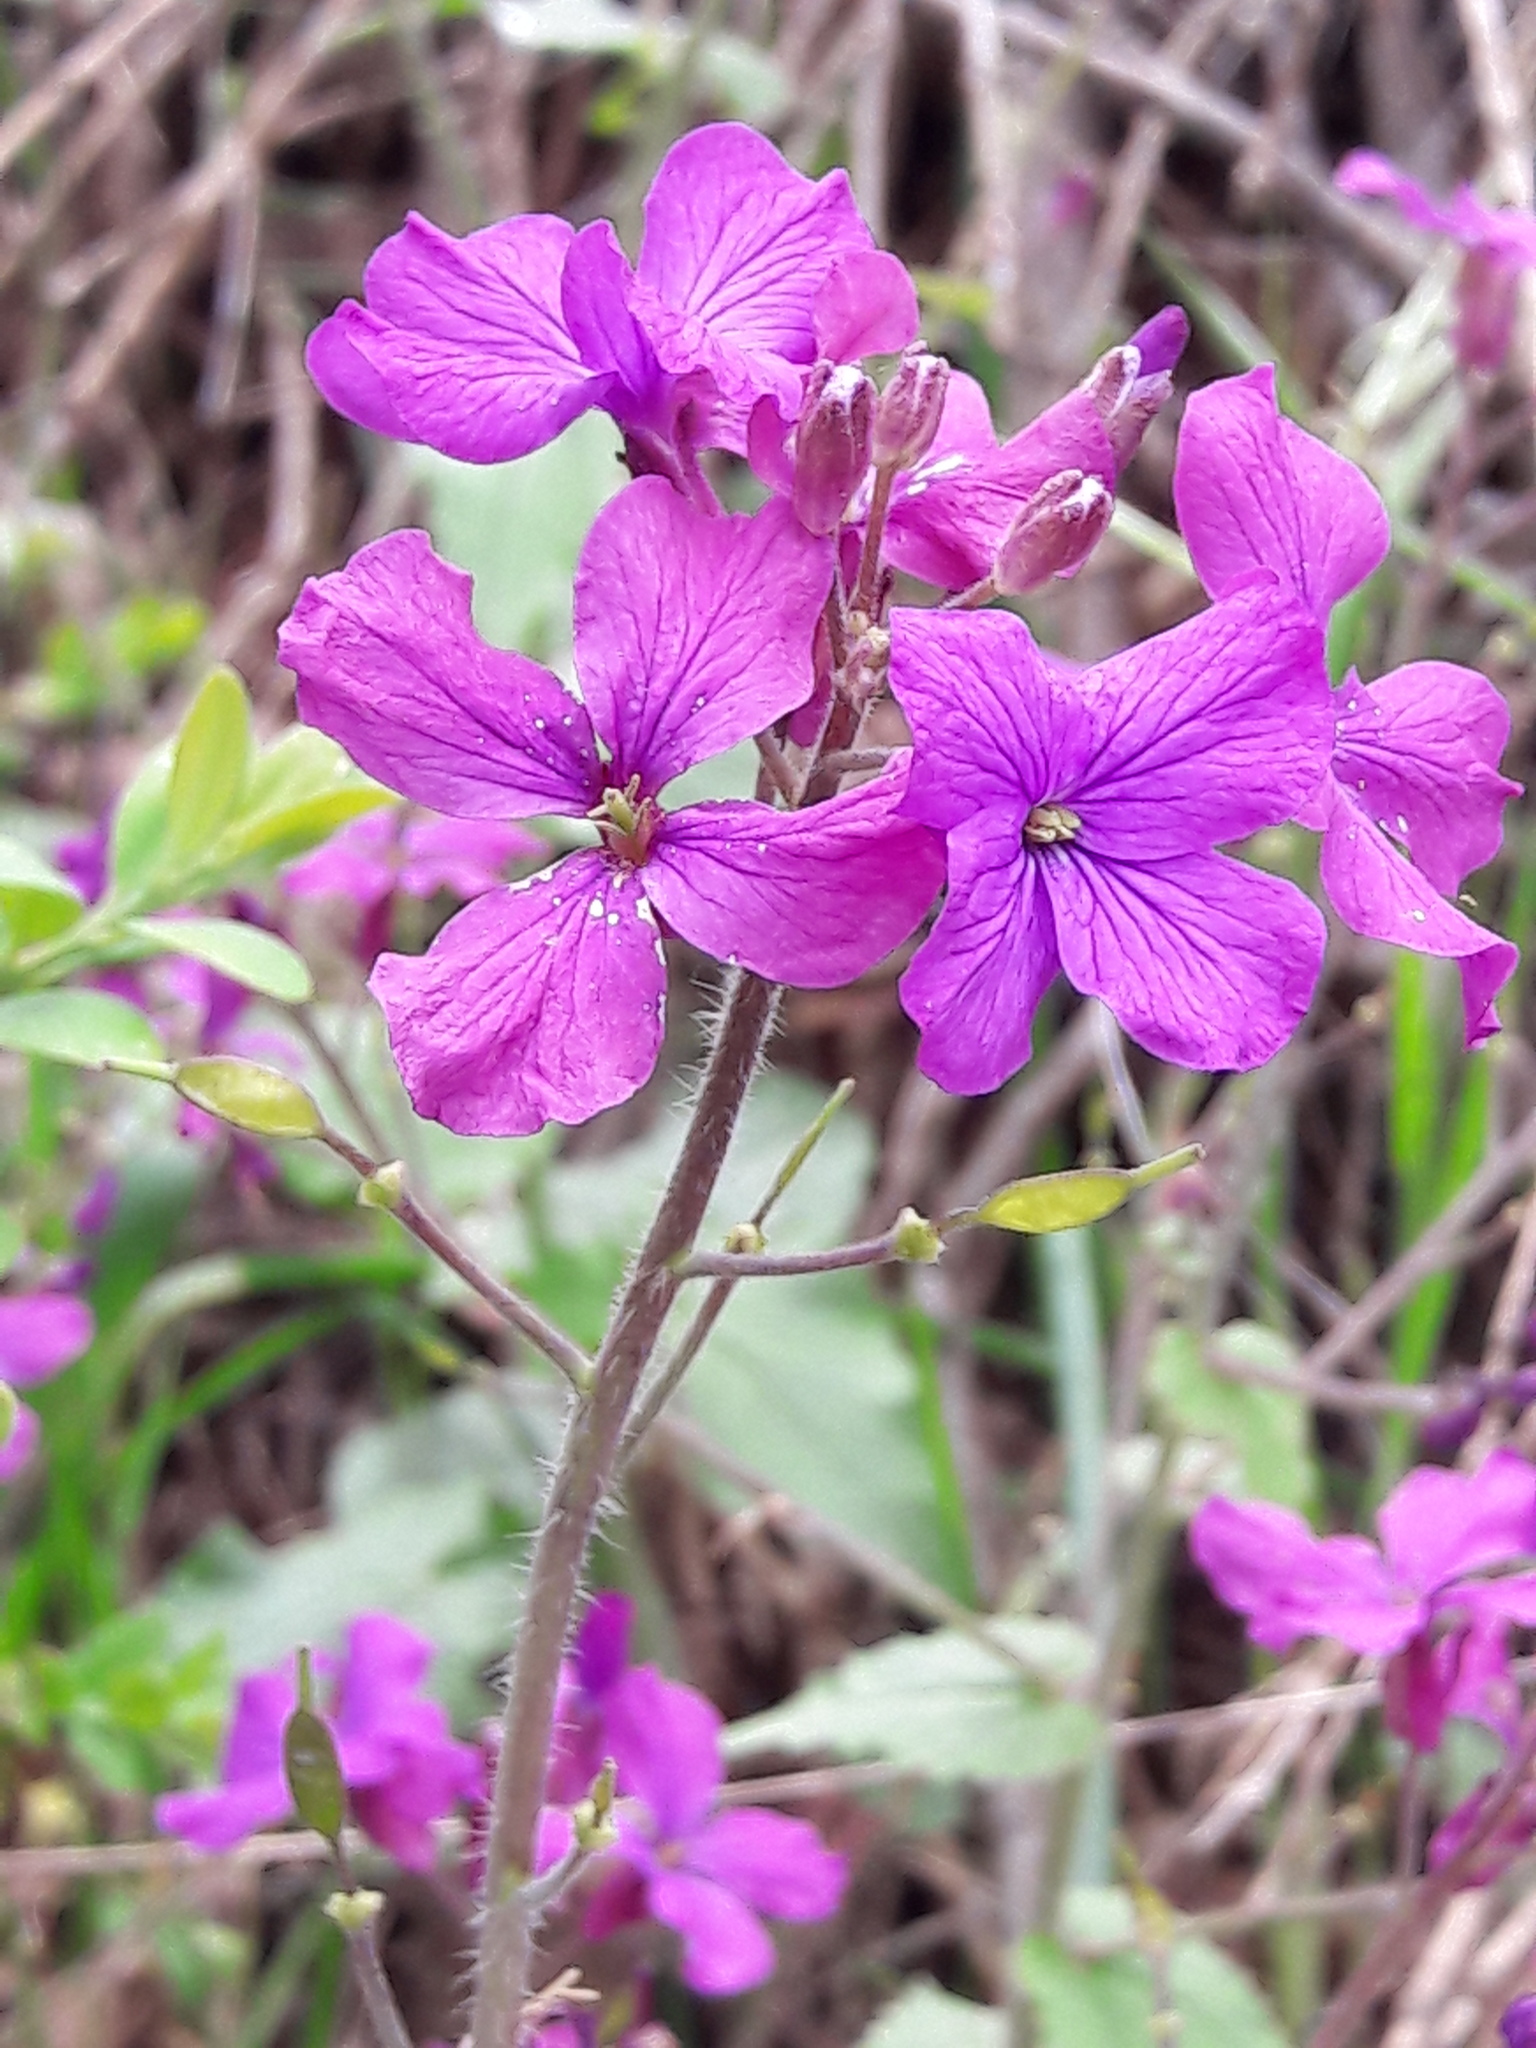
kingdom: Plantae
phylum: Tracheophyta
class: Magnoliopsida
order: Brassicales
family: Brassicaceae
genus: Lunaria
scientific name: Lunaria annua
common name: Honesty
